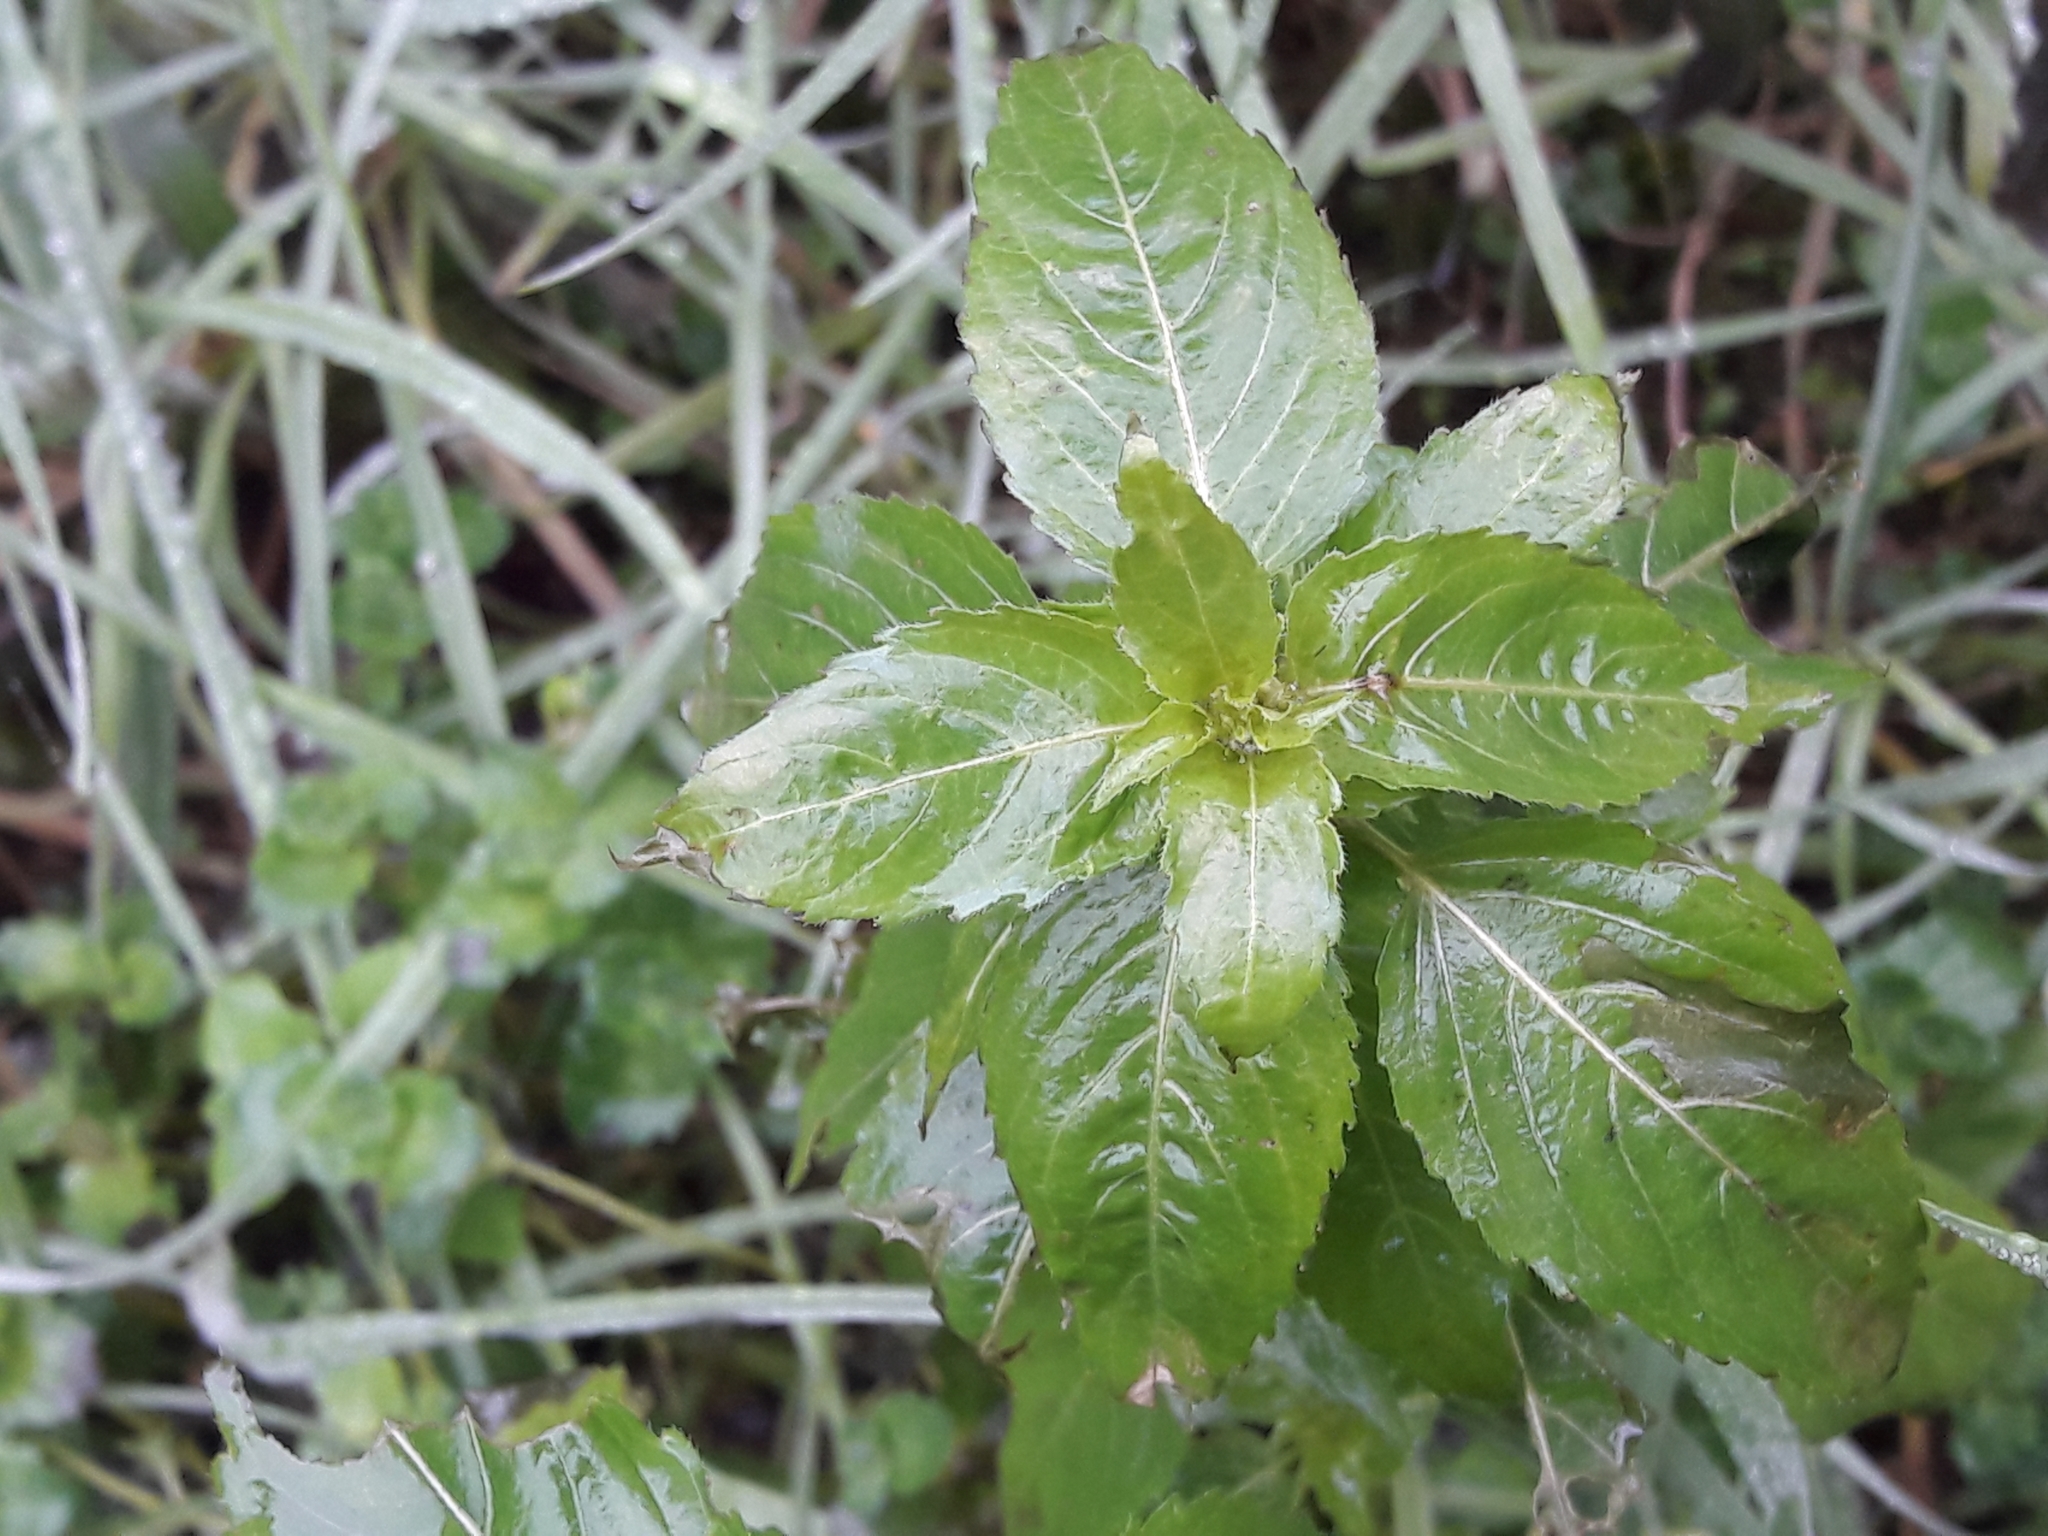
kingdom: Plantae
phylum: Tracheophyta
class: Magnoliopsida
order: Malpighiales
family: Euphorbiaceae
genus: Mercurialis
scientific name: Mercurialis annua
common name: Annual mercury
